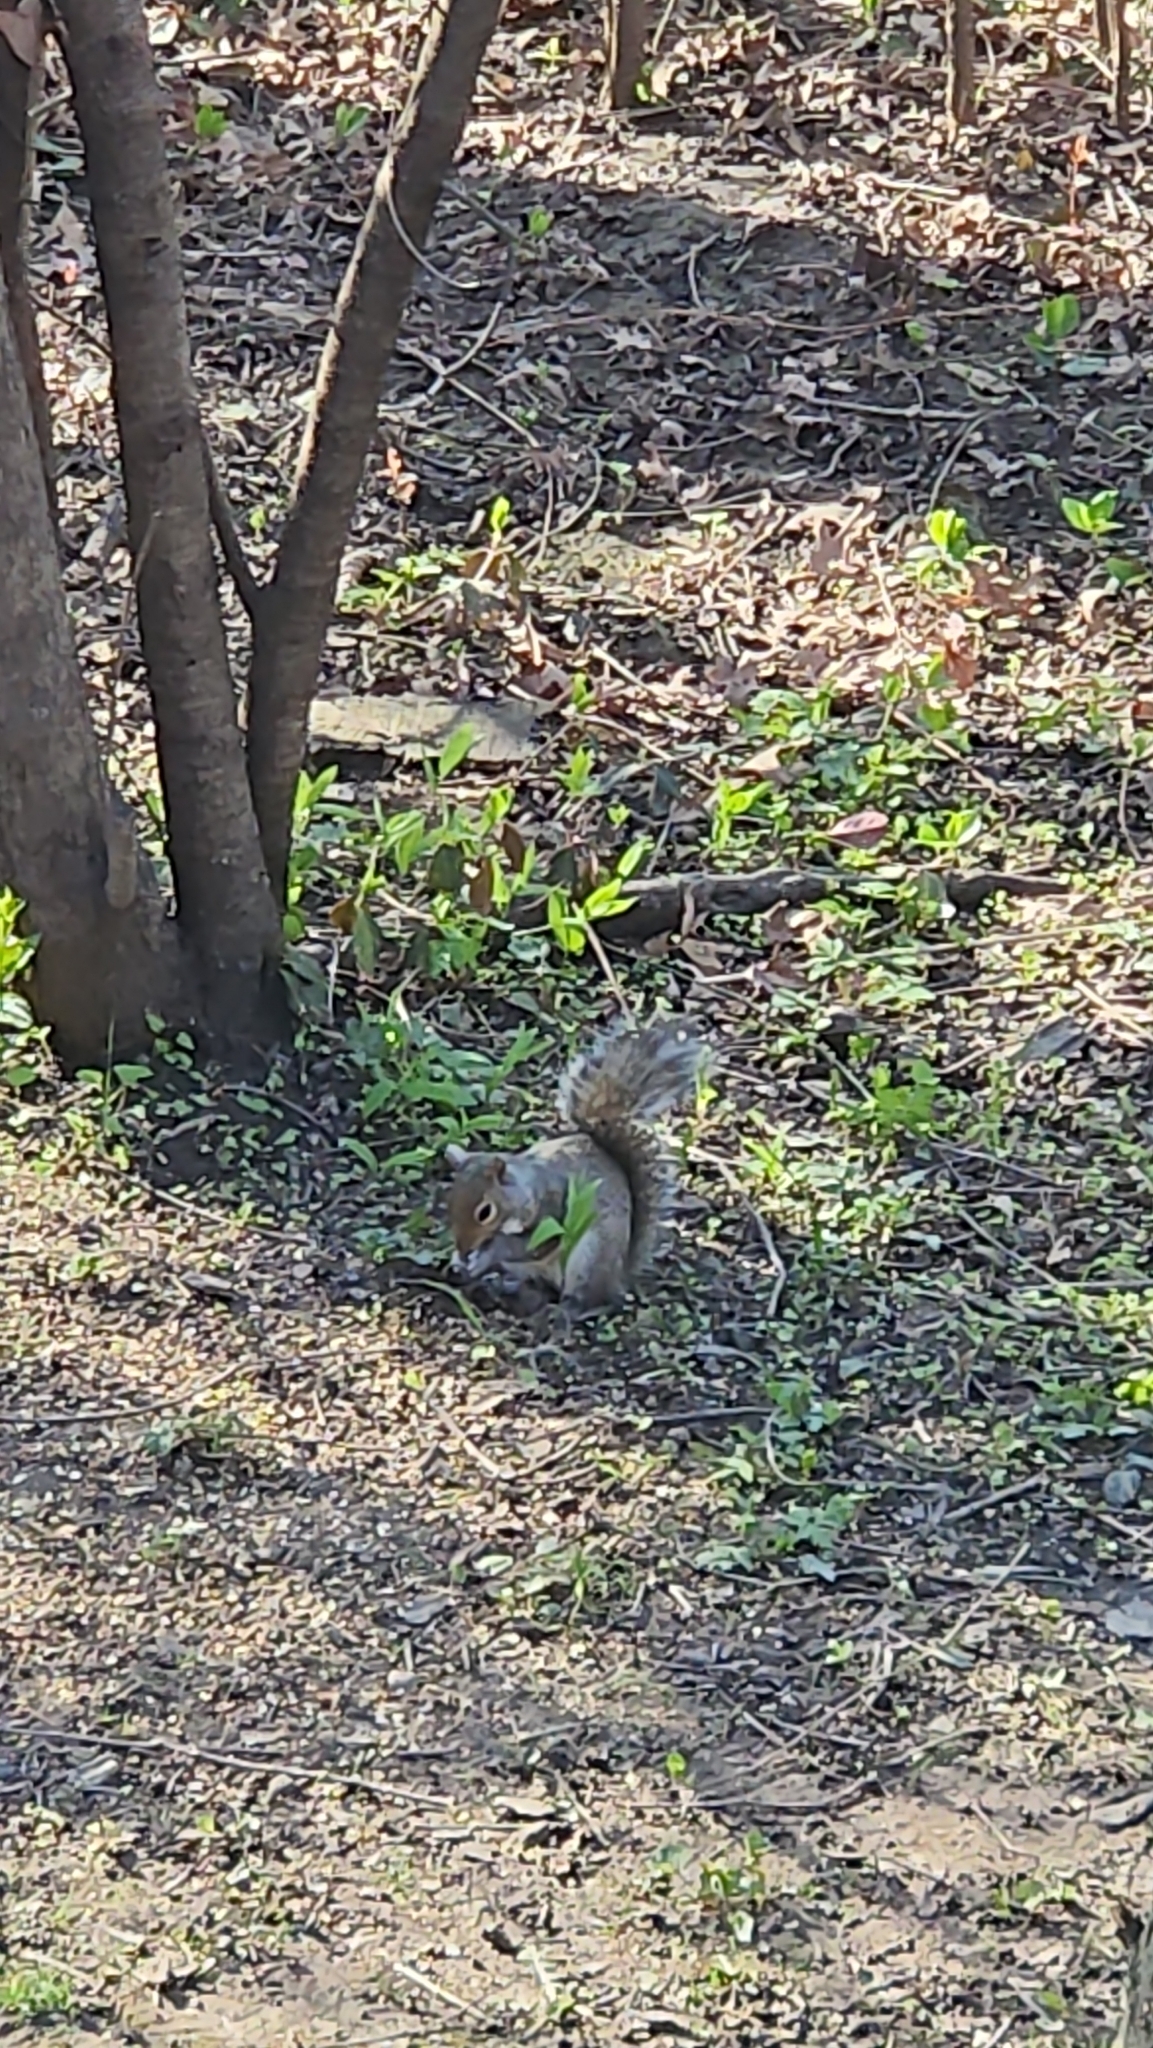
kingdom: Animalia
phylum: Chordata
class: Mammalia
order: Rodentia
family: Sciuridae
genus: Sciurus
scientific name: Sciurus carolinensis
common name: Eastern gray squirrel
